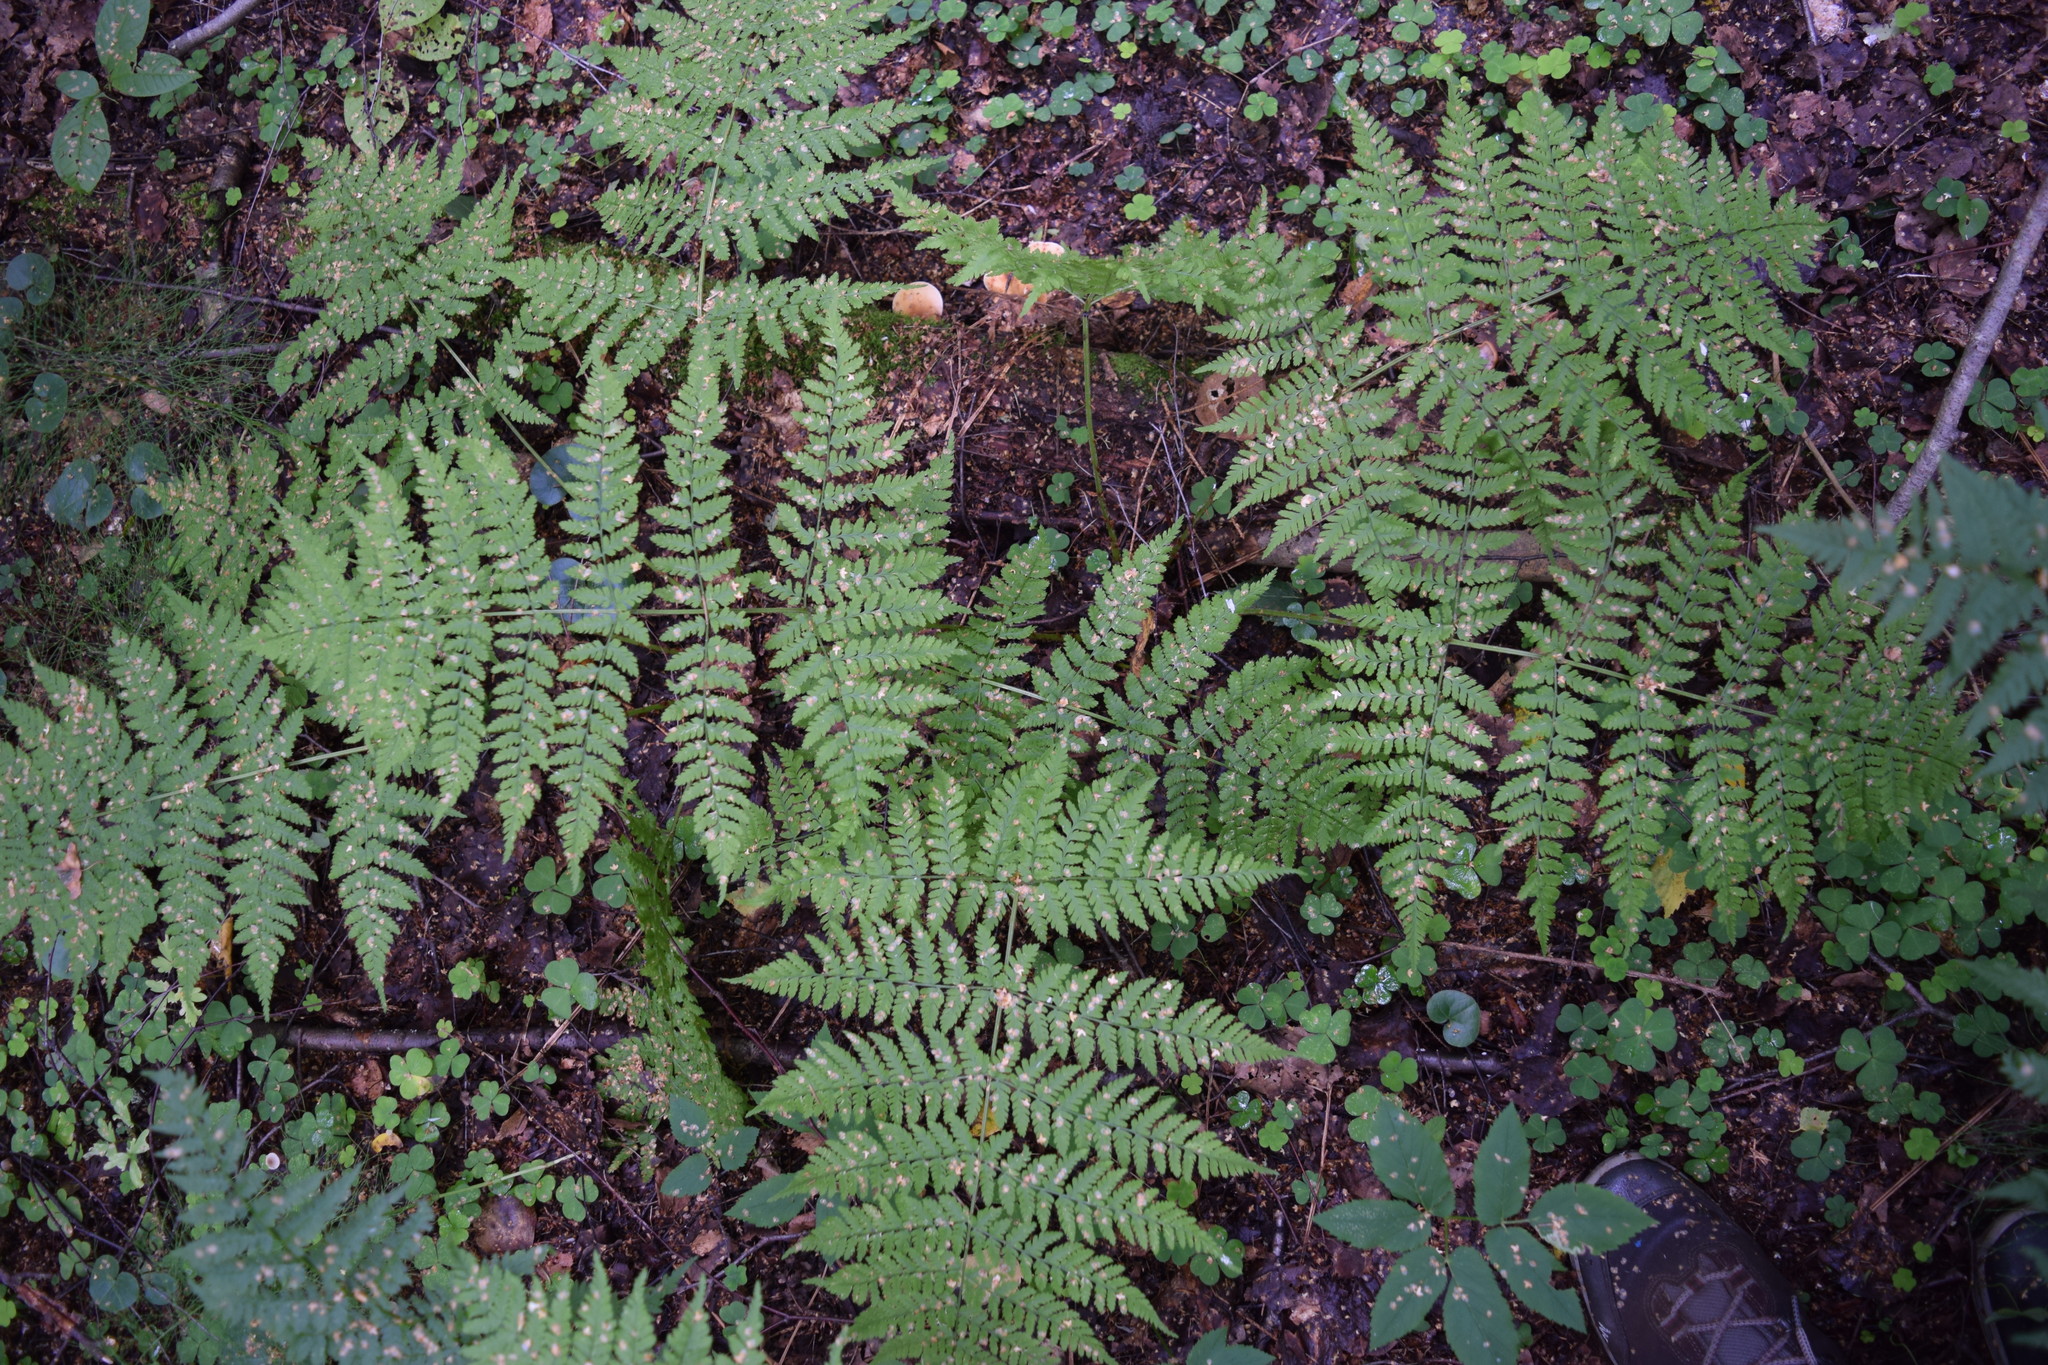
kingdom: Plantae
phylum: Tracheophyta
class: Polypodiopsida
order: Polypodiales
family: Dryopteridaceae
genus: Dryopteris
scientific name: Dryopteris expansa
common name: Northern buckler fern
